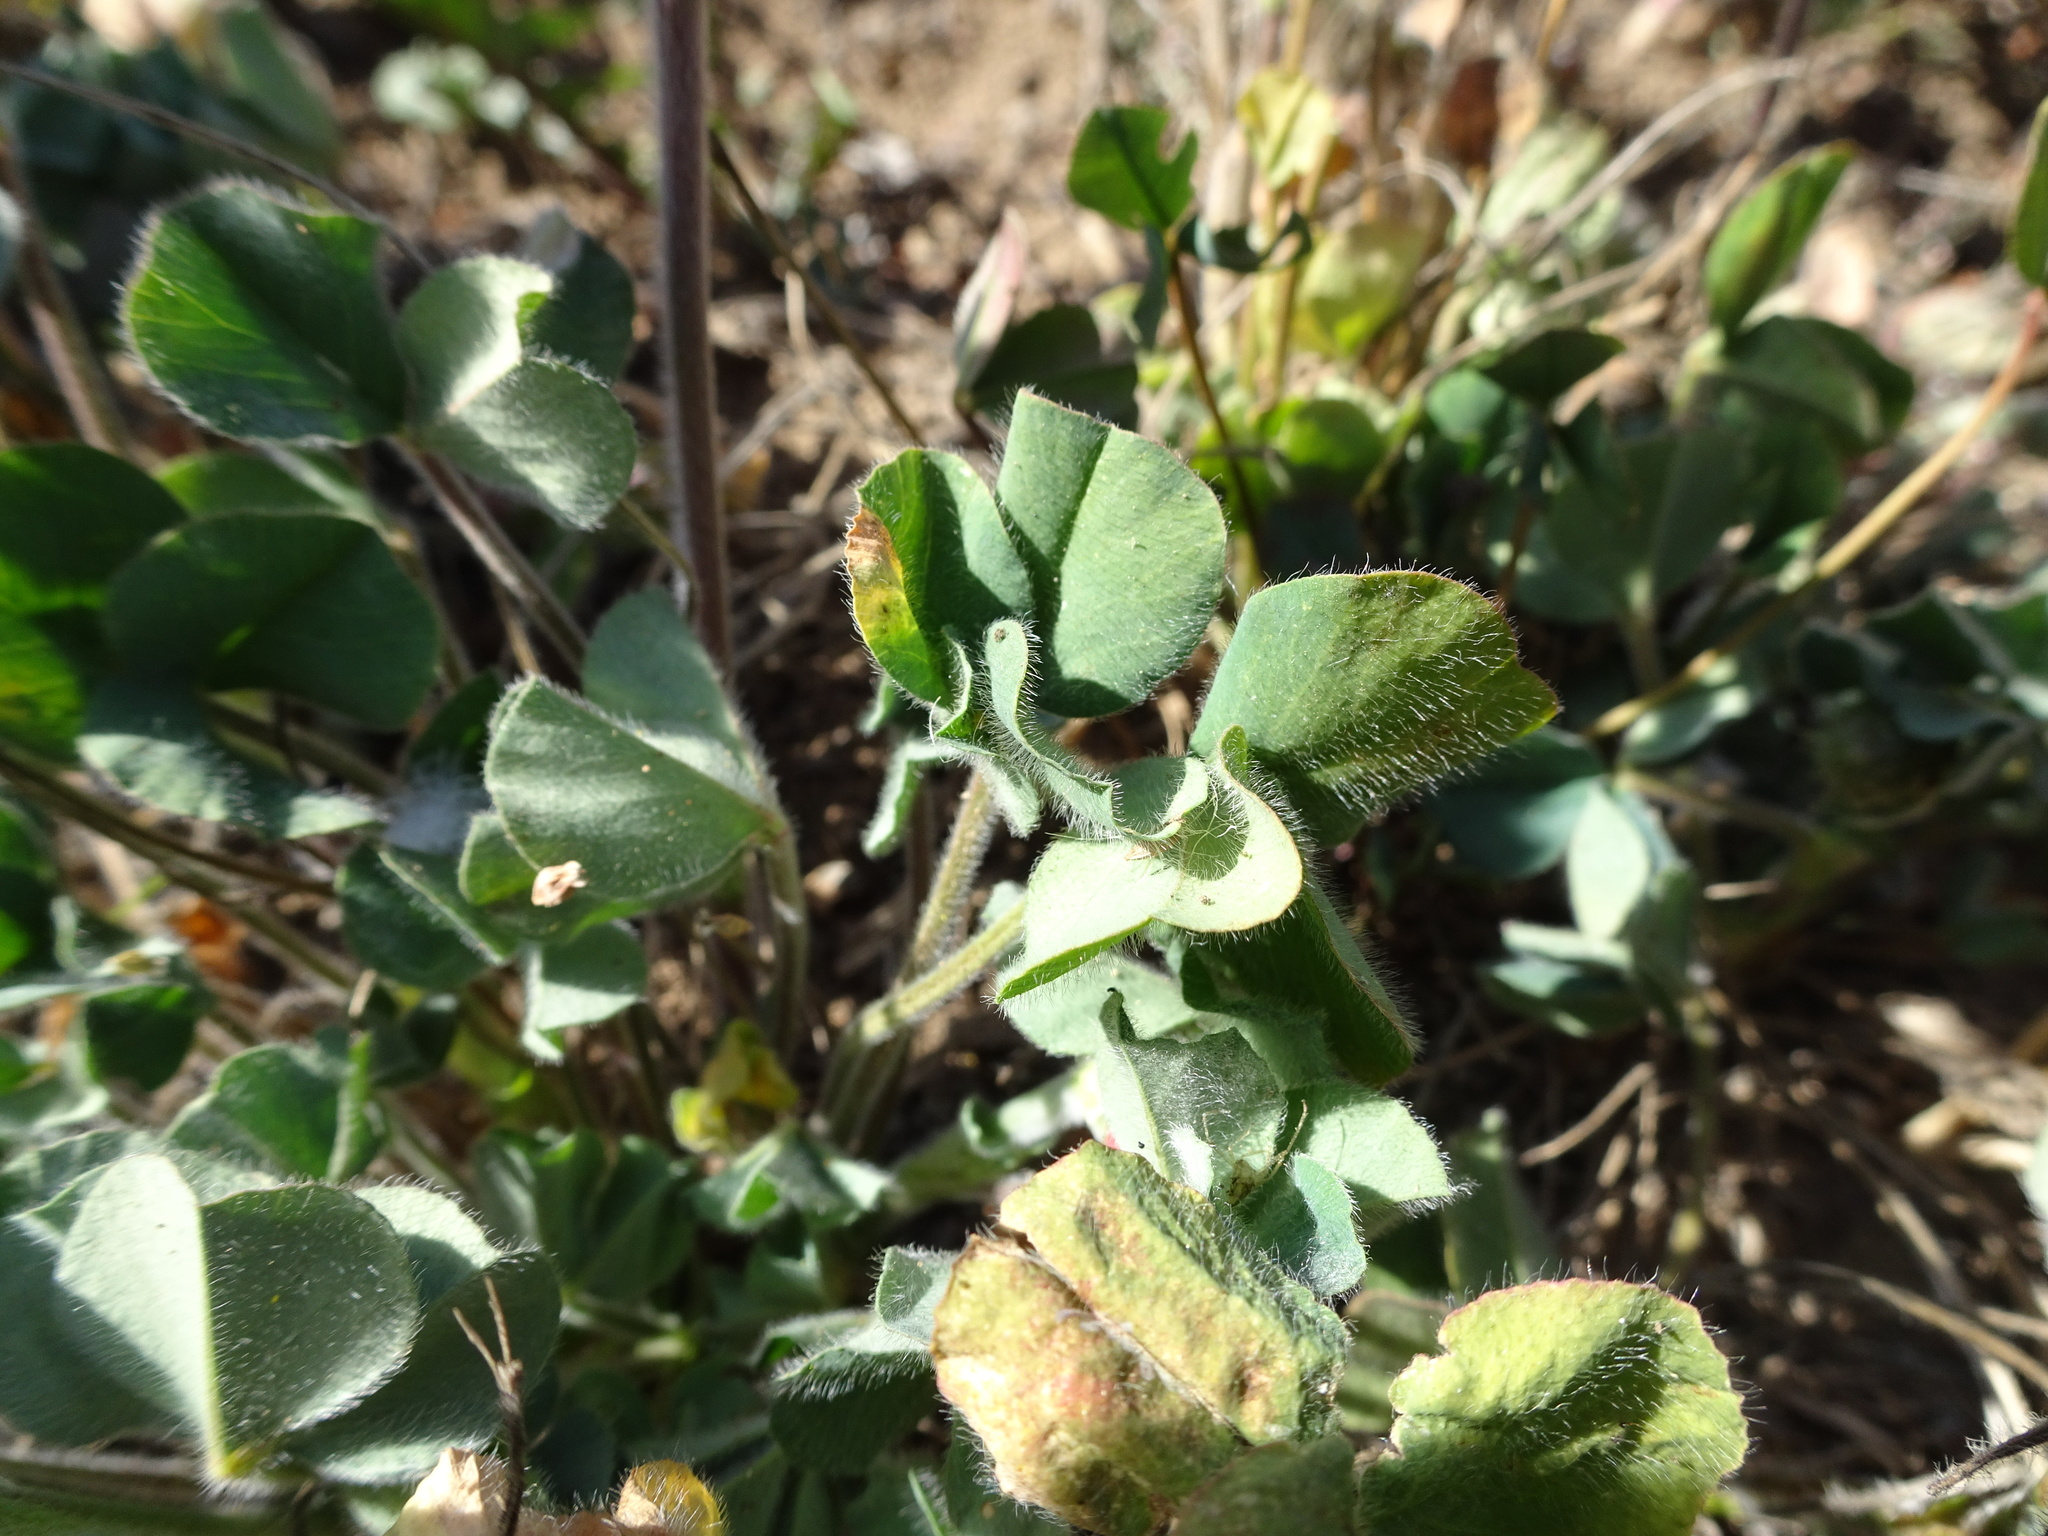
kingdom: Plantae
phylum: Tracheophyta
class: Magnoliopsida
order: Fabales
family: Fabaceae
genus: Trifolium
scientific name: Trifolium incarnatum
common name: Crimson clover
